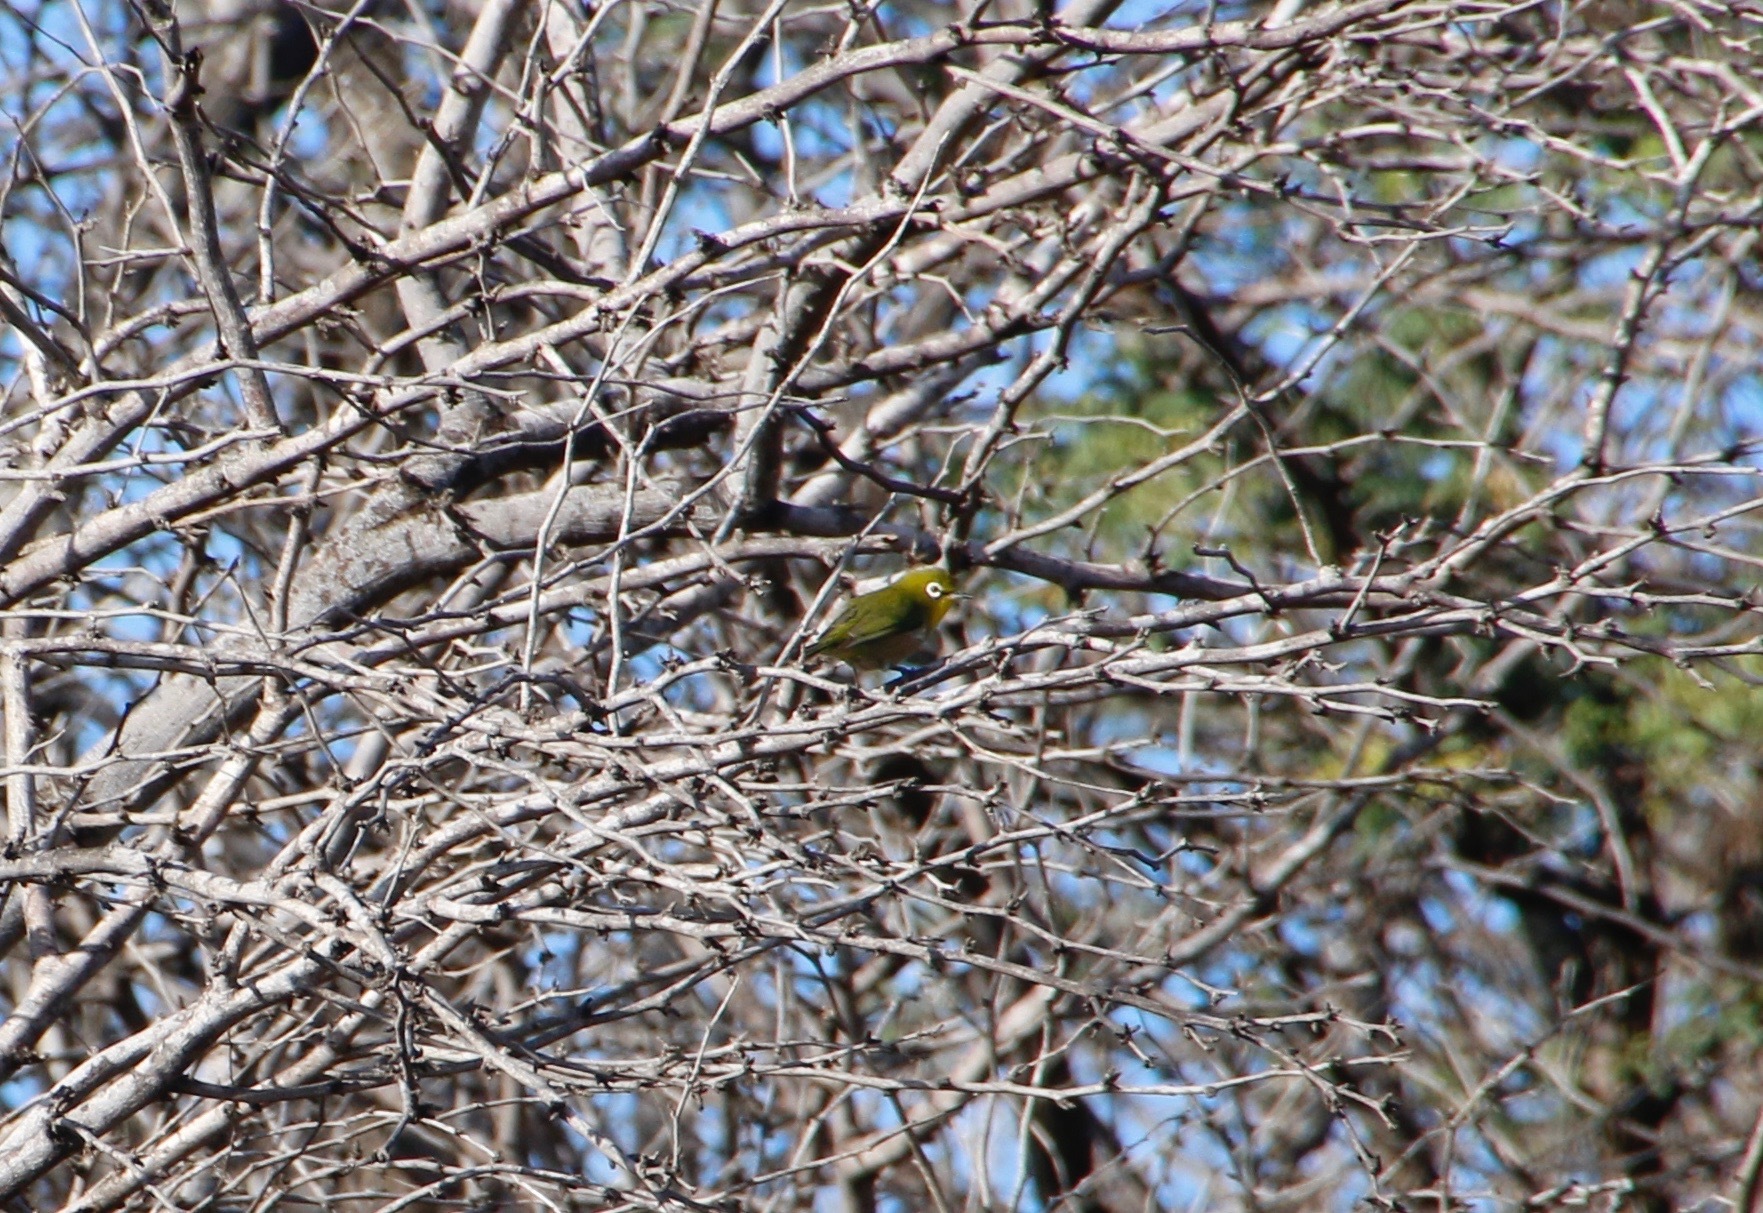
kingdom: Animalia
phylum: Chordata
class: Aves
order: Passeriformes
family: Zosteropidae
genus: Zosterops
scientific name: Zosterops japonicus
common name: Japanese white-eye
